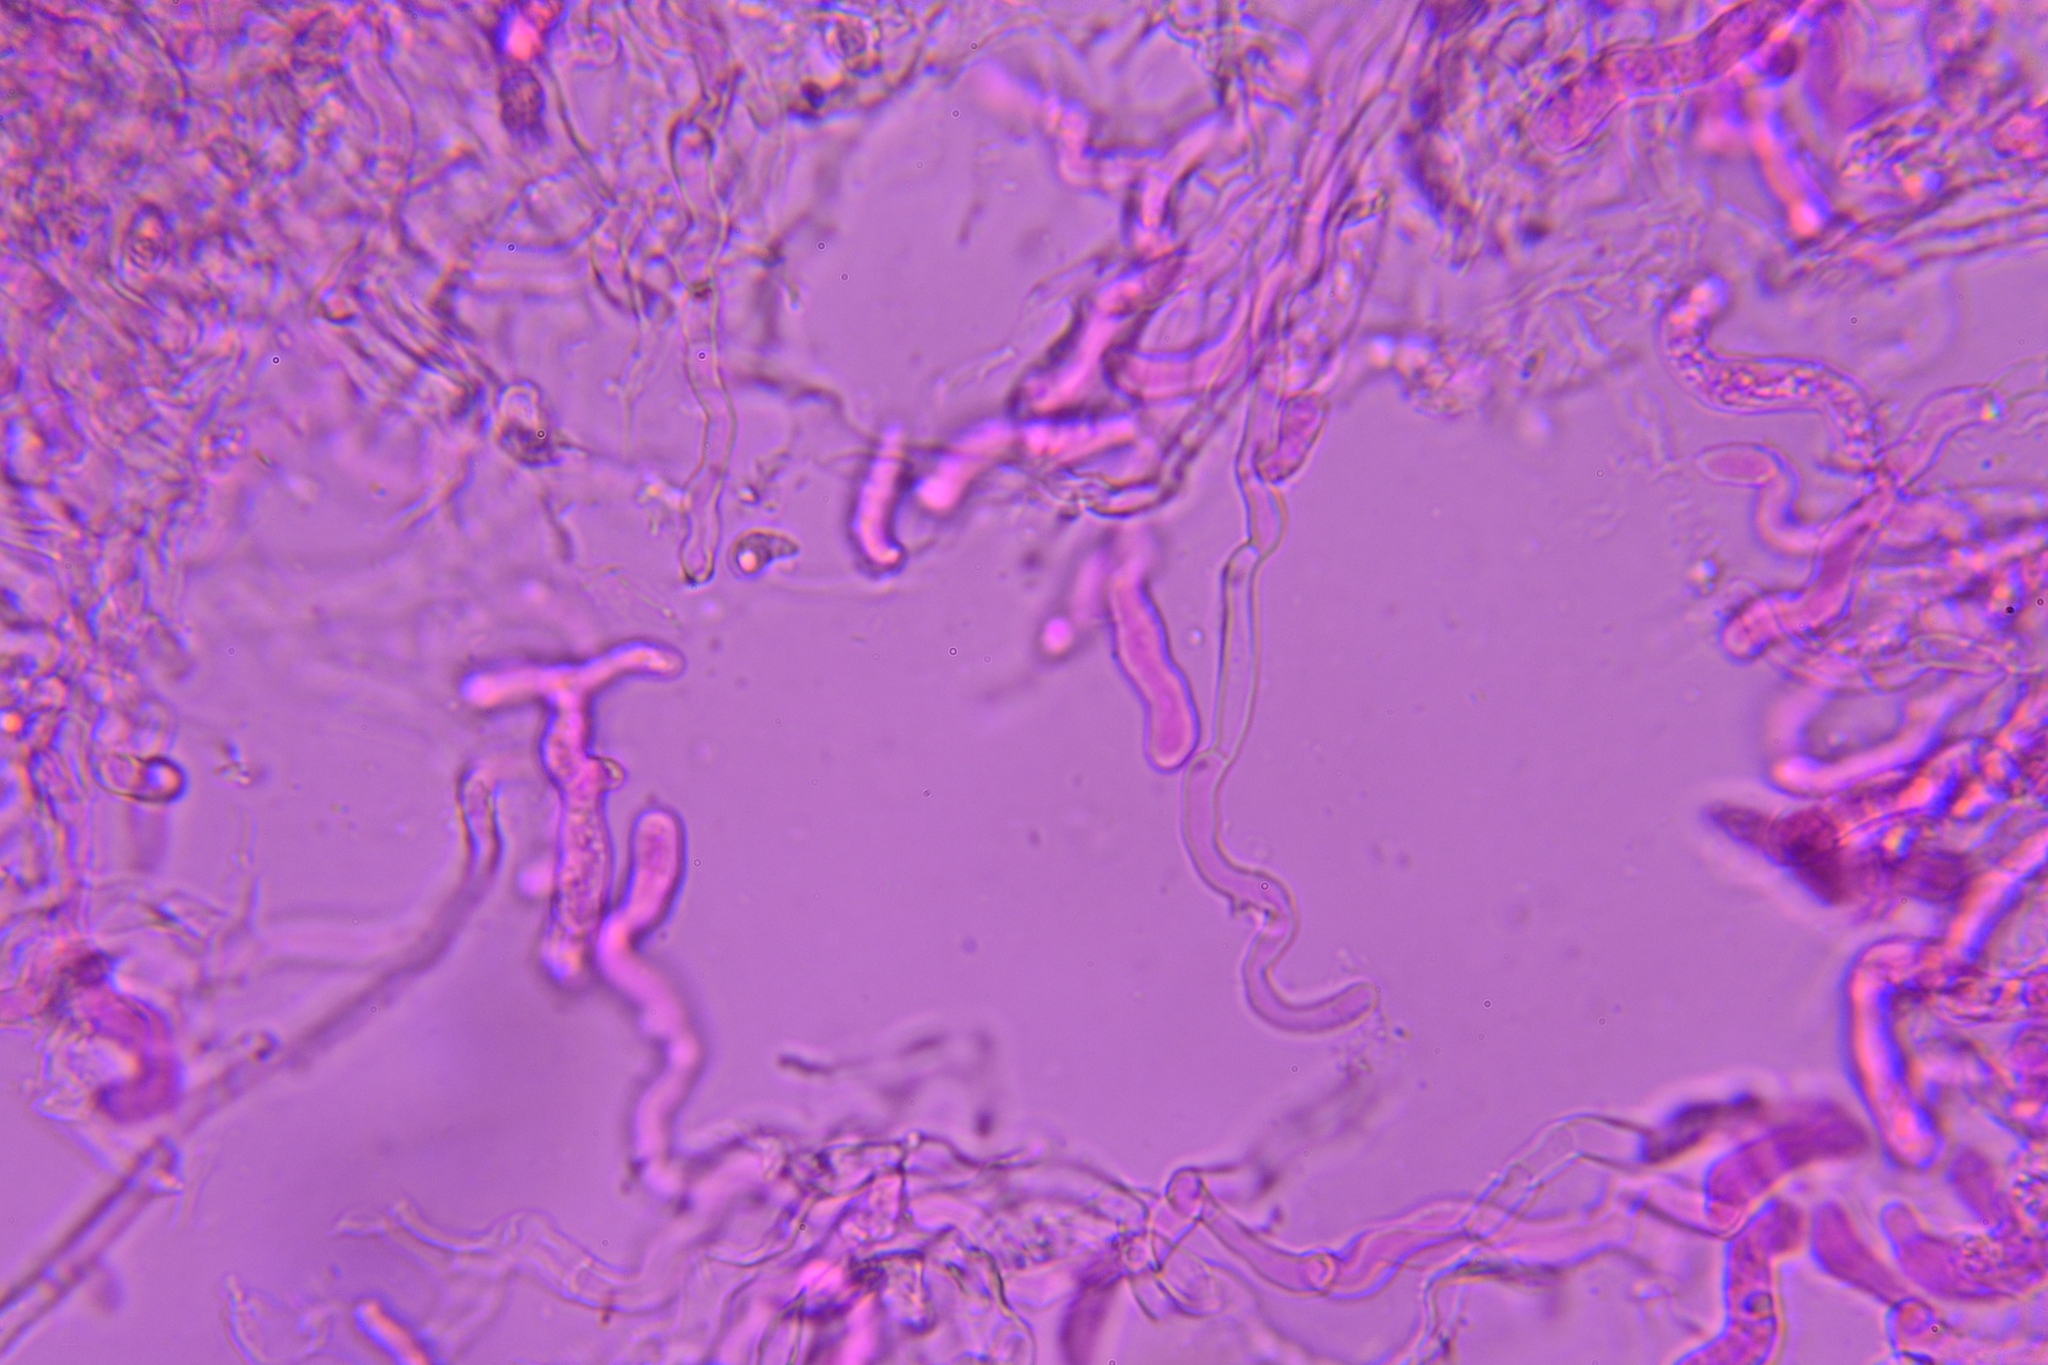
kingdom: Fungi
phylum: Basidiomycota
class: Pucciniomycetes
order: Platygloeales
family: Eocronartiaceae
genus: Eocronartium
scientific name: Eocronartium muscicola
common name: Moss rust
